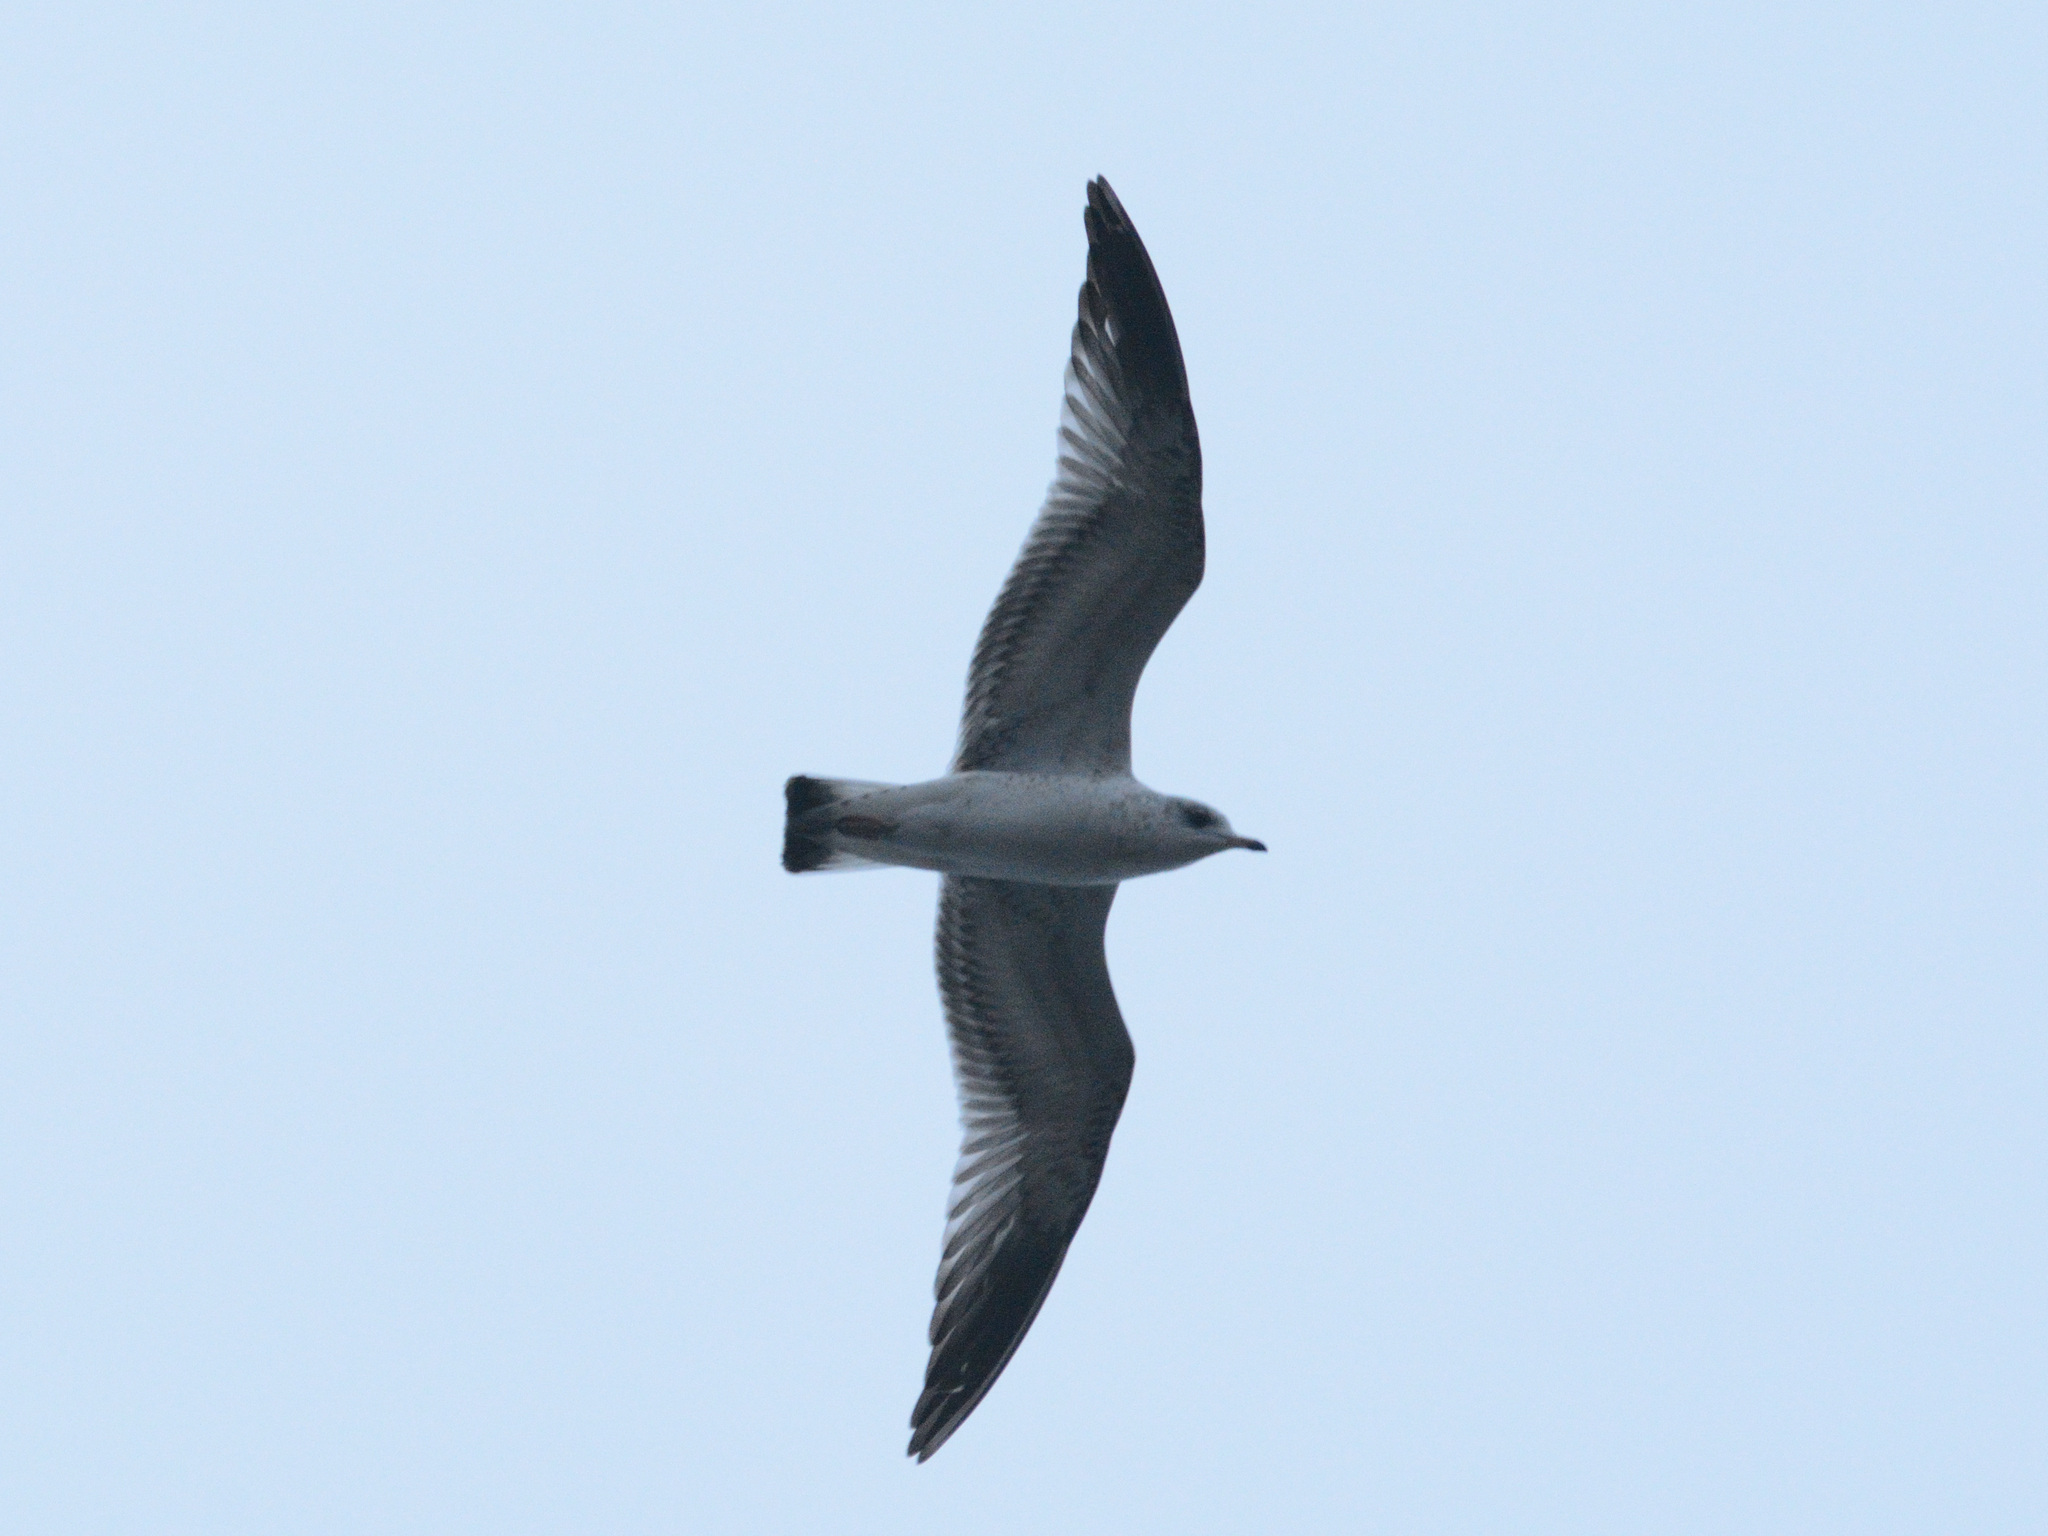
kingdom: Animalia
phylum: Chordata
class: Aves
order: Charadriiformes
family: Laridae
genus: Larus
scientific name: Larus canus
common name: Mew gull
